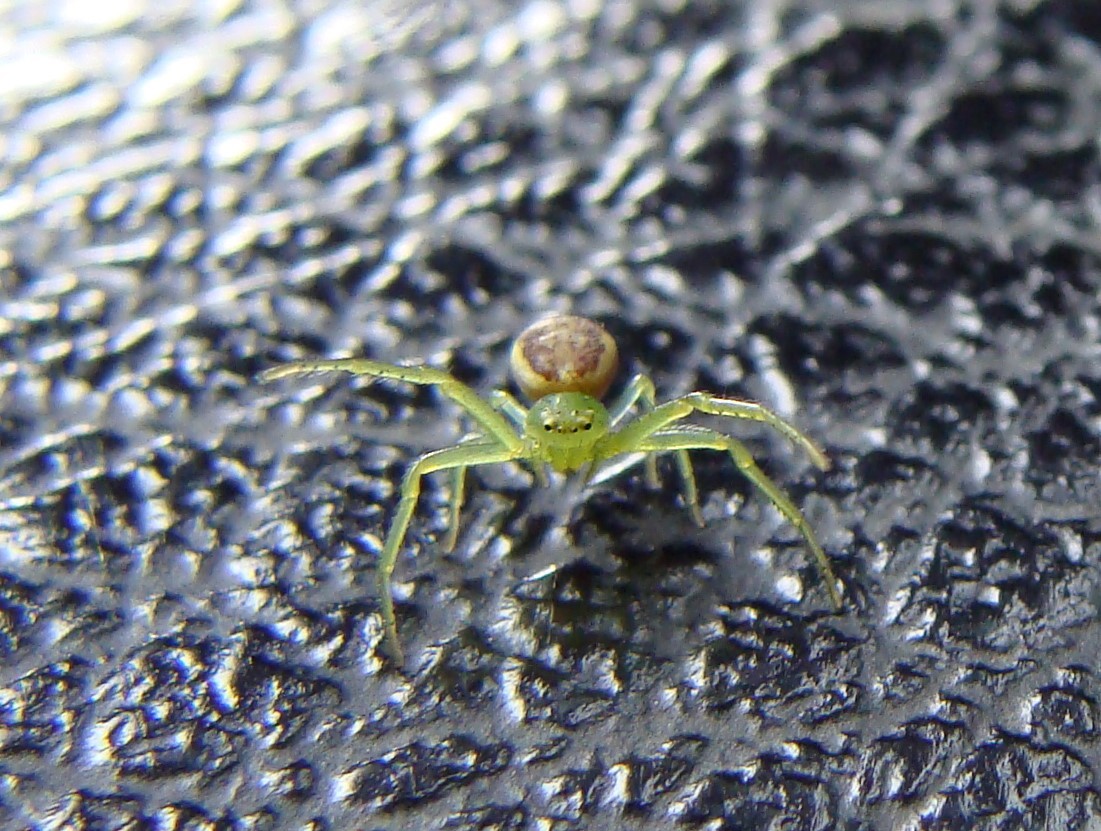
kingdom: Animalia
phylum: Arthropoda
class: Arachnida
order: Araneae
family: Thomisidae
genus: Diaea
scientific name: Diaea dorsata
